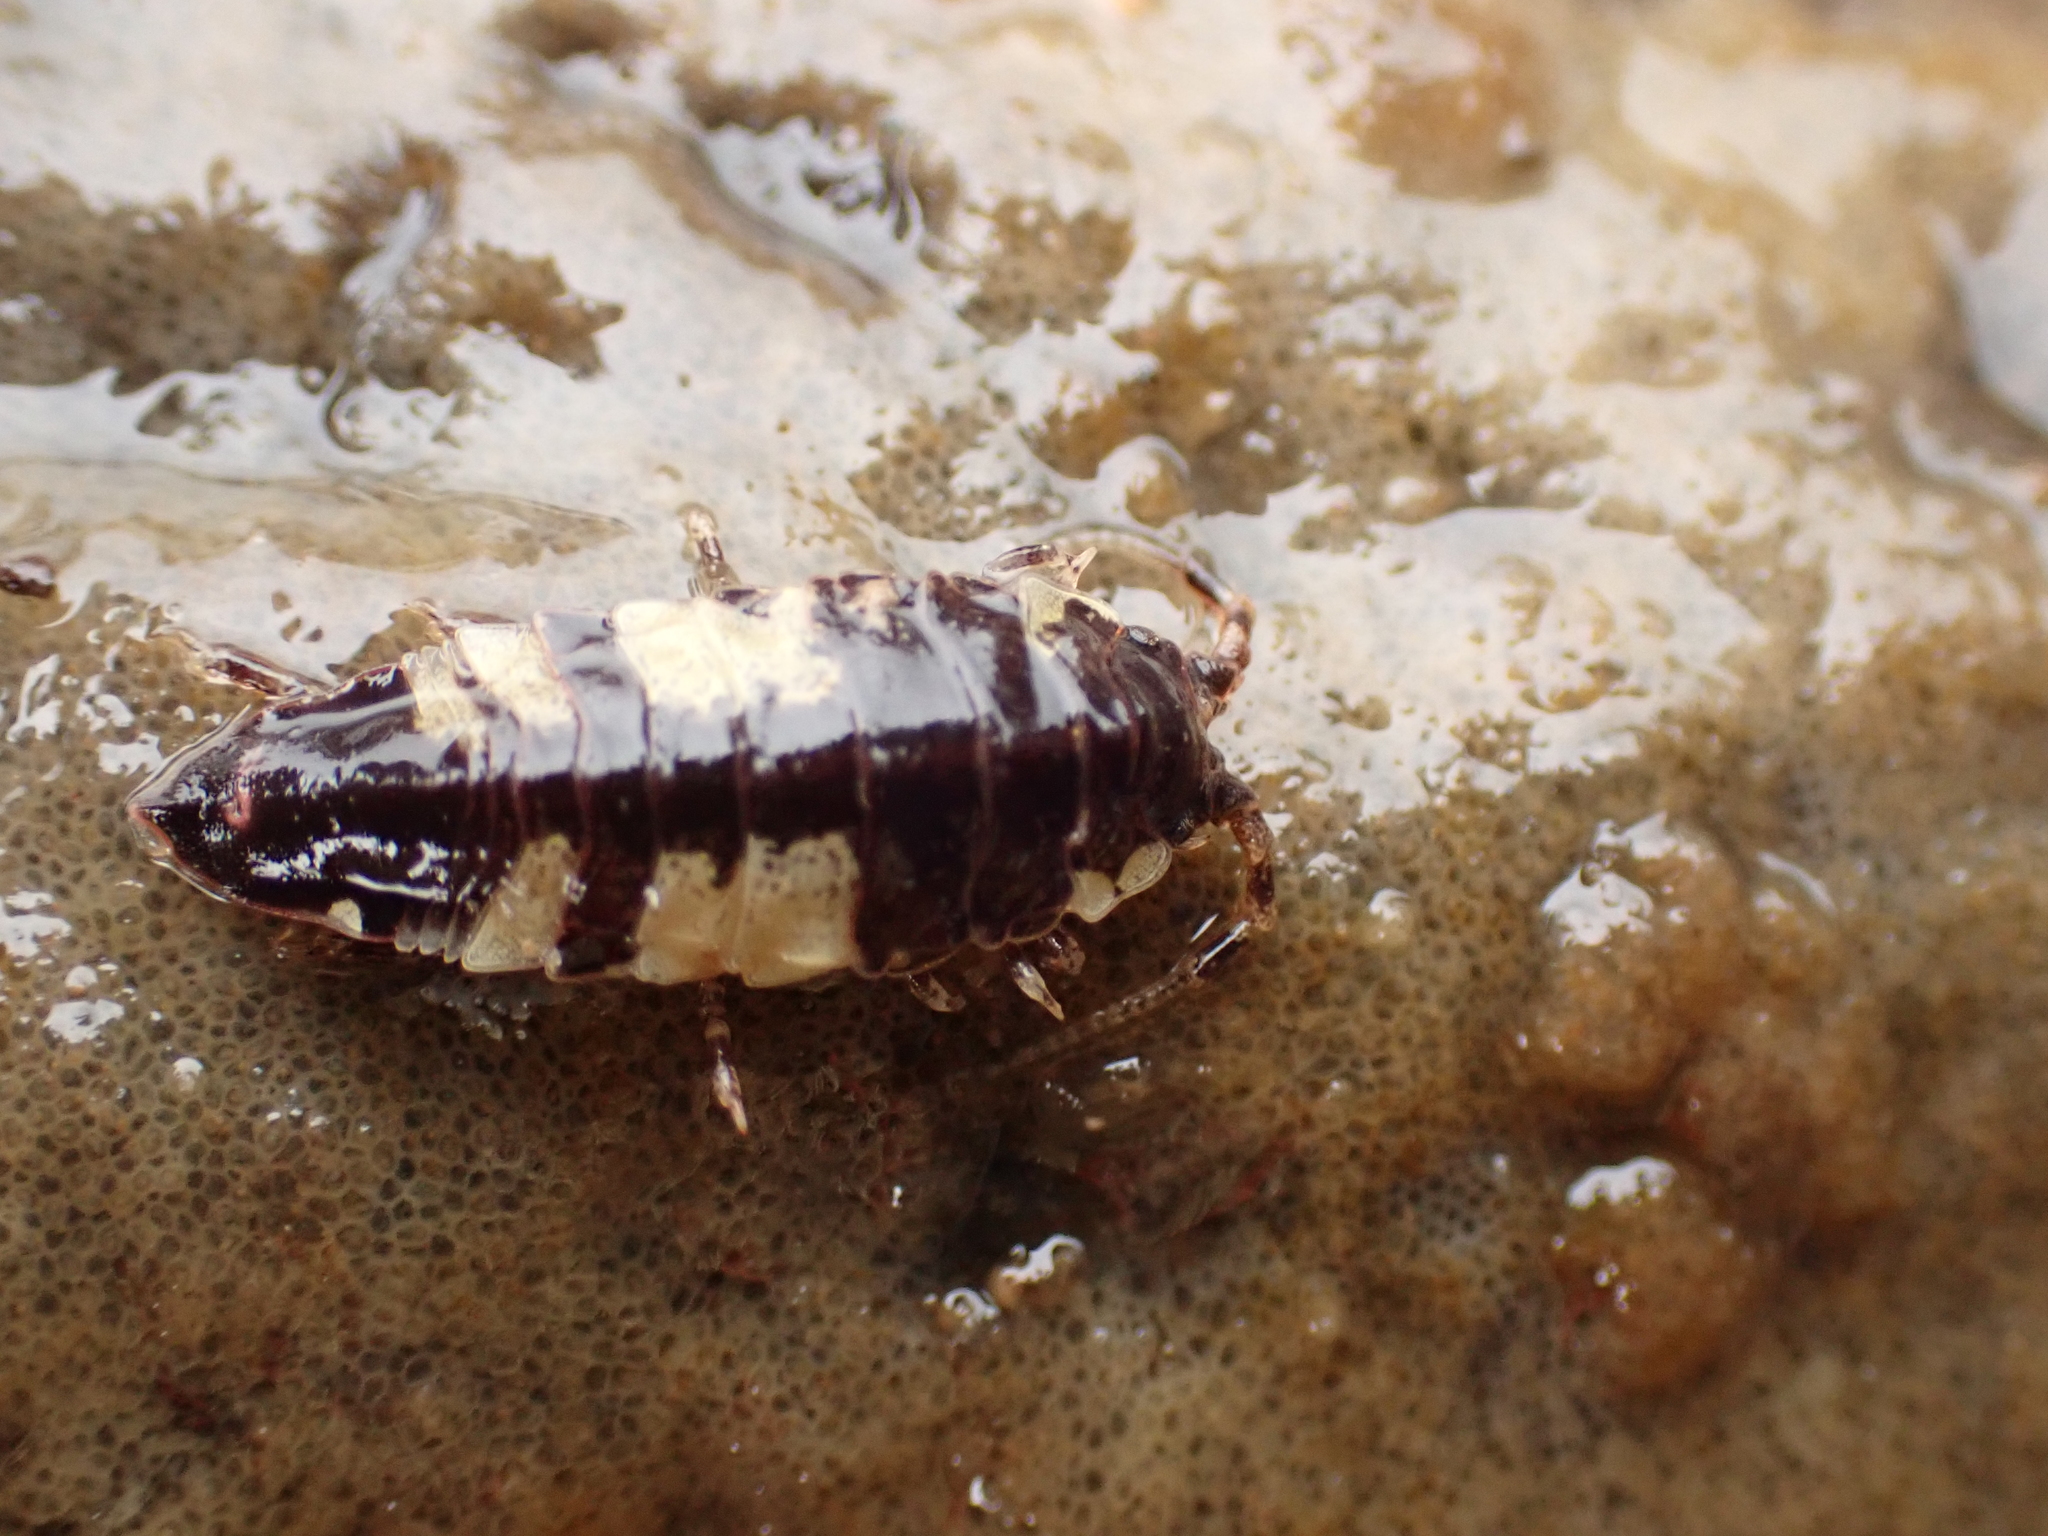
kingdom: Animalia
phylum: Arthropoda
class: Malacostraca
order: Isopoda
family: Idoteidae
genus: Idotea
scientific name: Idotea phosphorea
